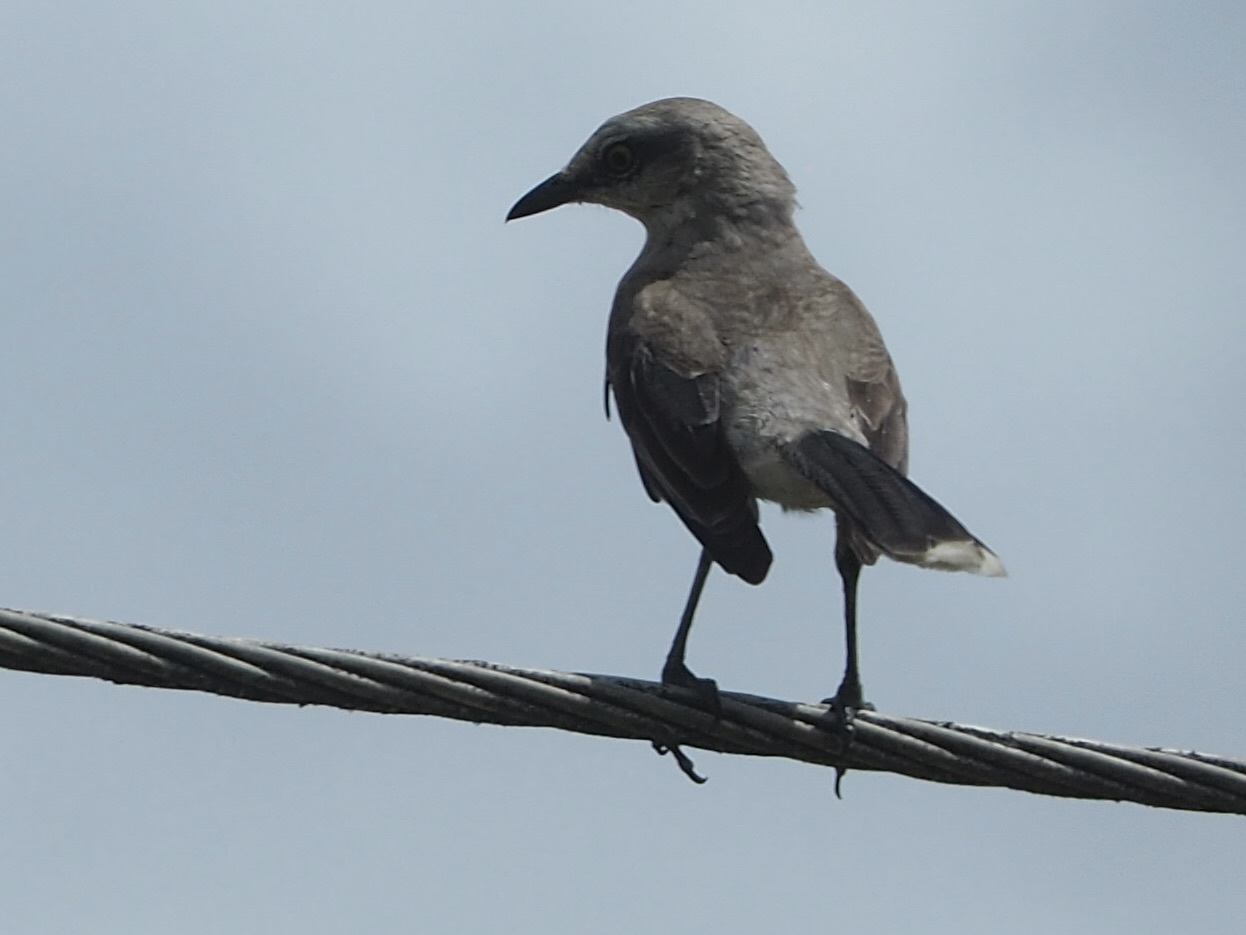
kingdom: Animalia
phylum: Chordata
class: Aves
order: Passeriformes
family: Mimidae
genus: Mimus
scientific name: Mimus gilvus
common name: Tropical mockingbird
